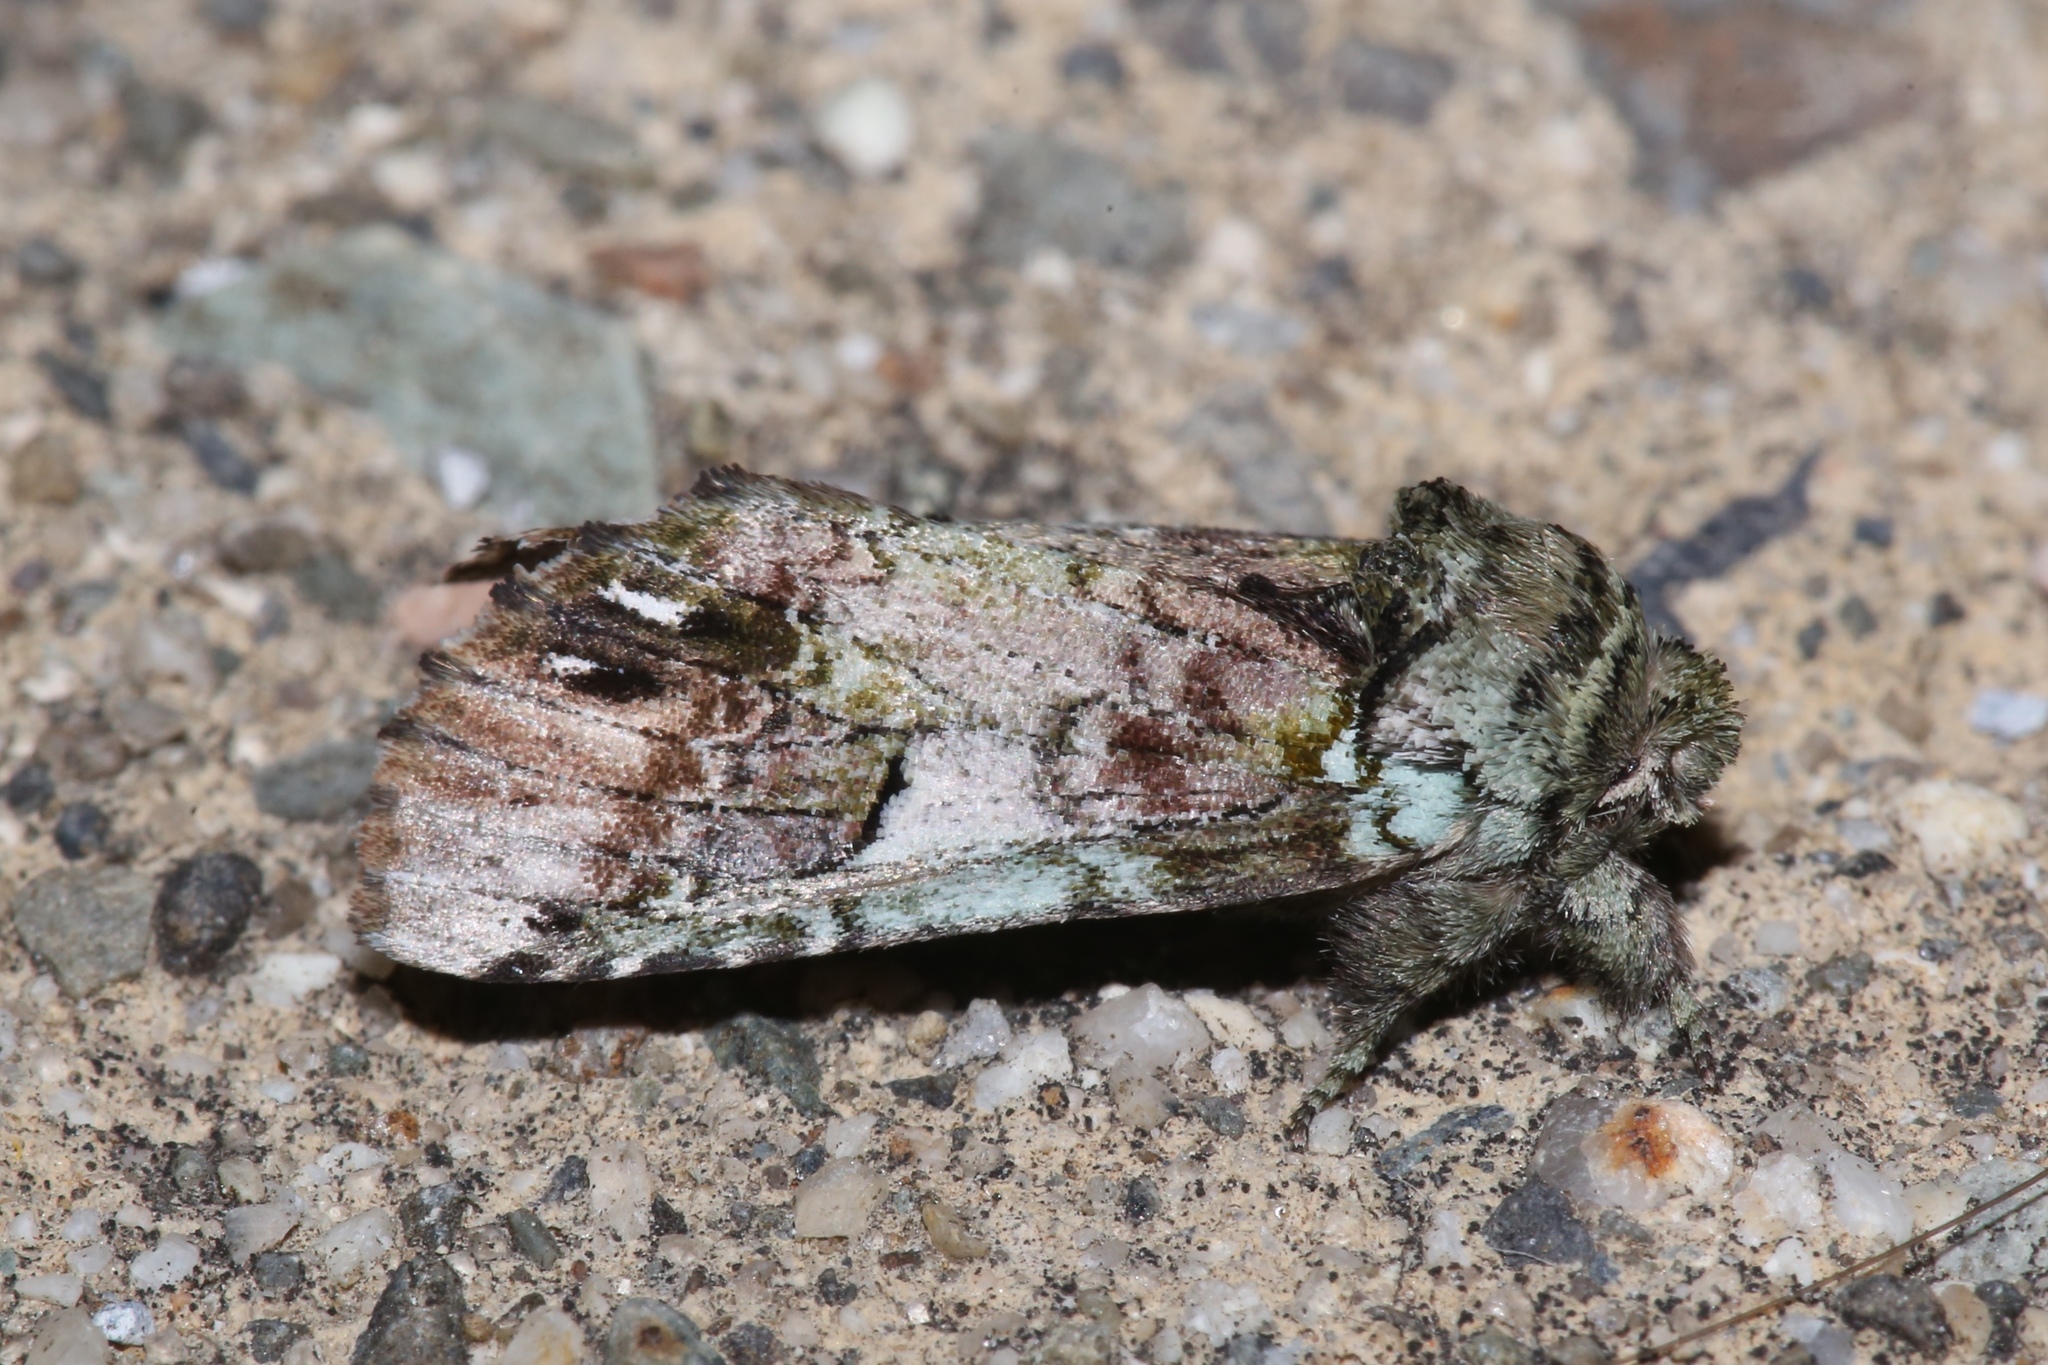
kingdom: Animalia
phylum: Arthropoda
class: Insecta
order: Lepidoptera
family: Notodontidae
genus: Schizura
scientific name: Schizura
